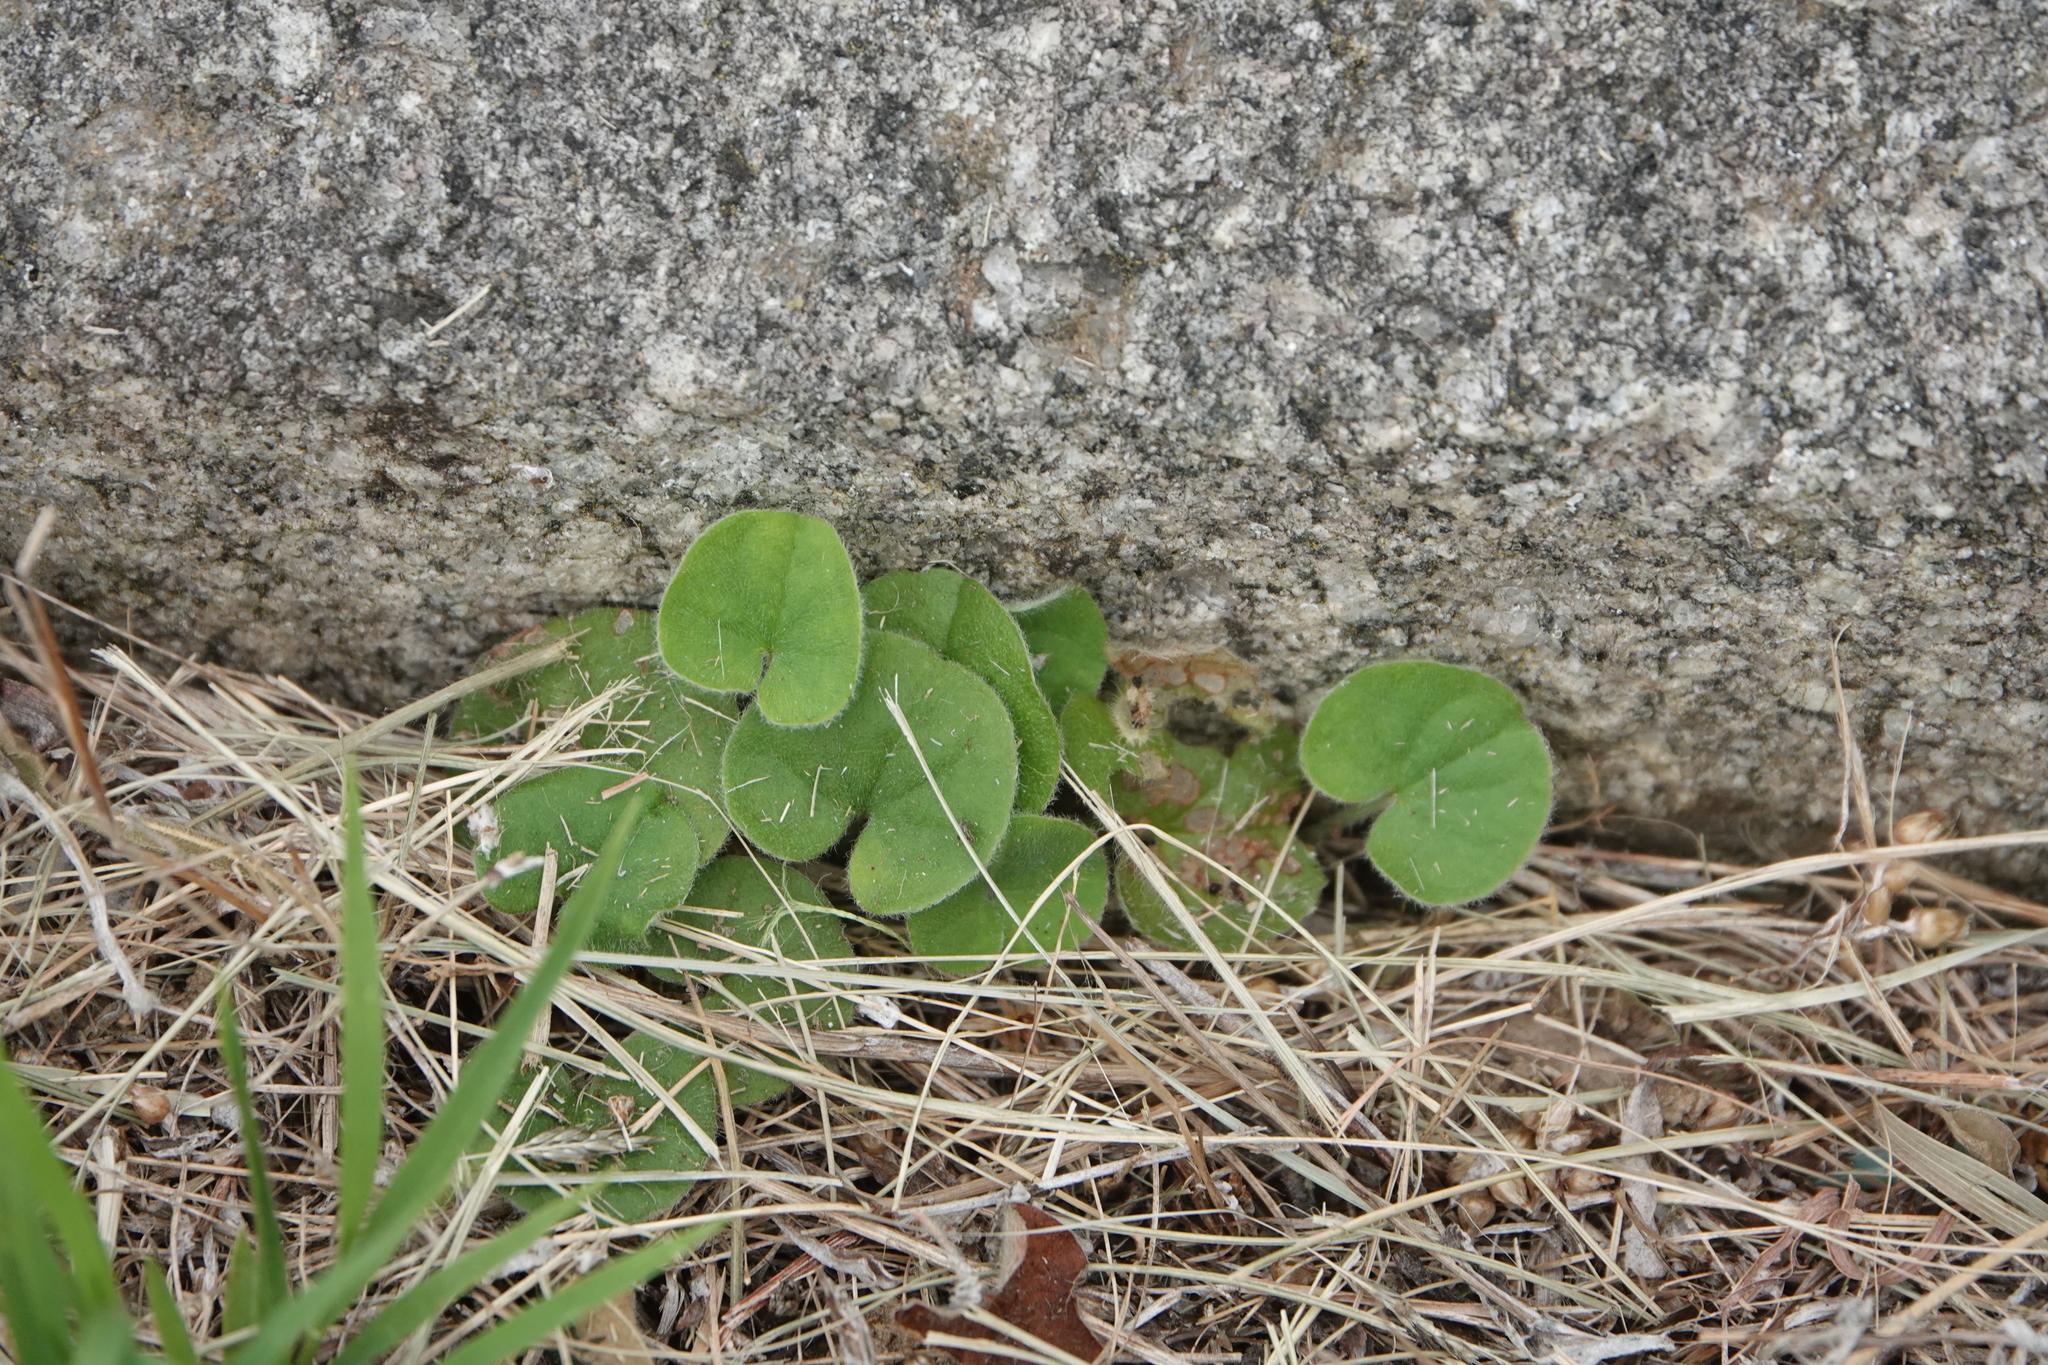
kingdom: Plantae
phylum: Tracheophyta
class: Magnoliopsida
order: Solanales
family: Convolvulaceae
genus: Dichondra
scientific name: Dichondra repens
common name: Kidneyweed
